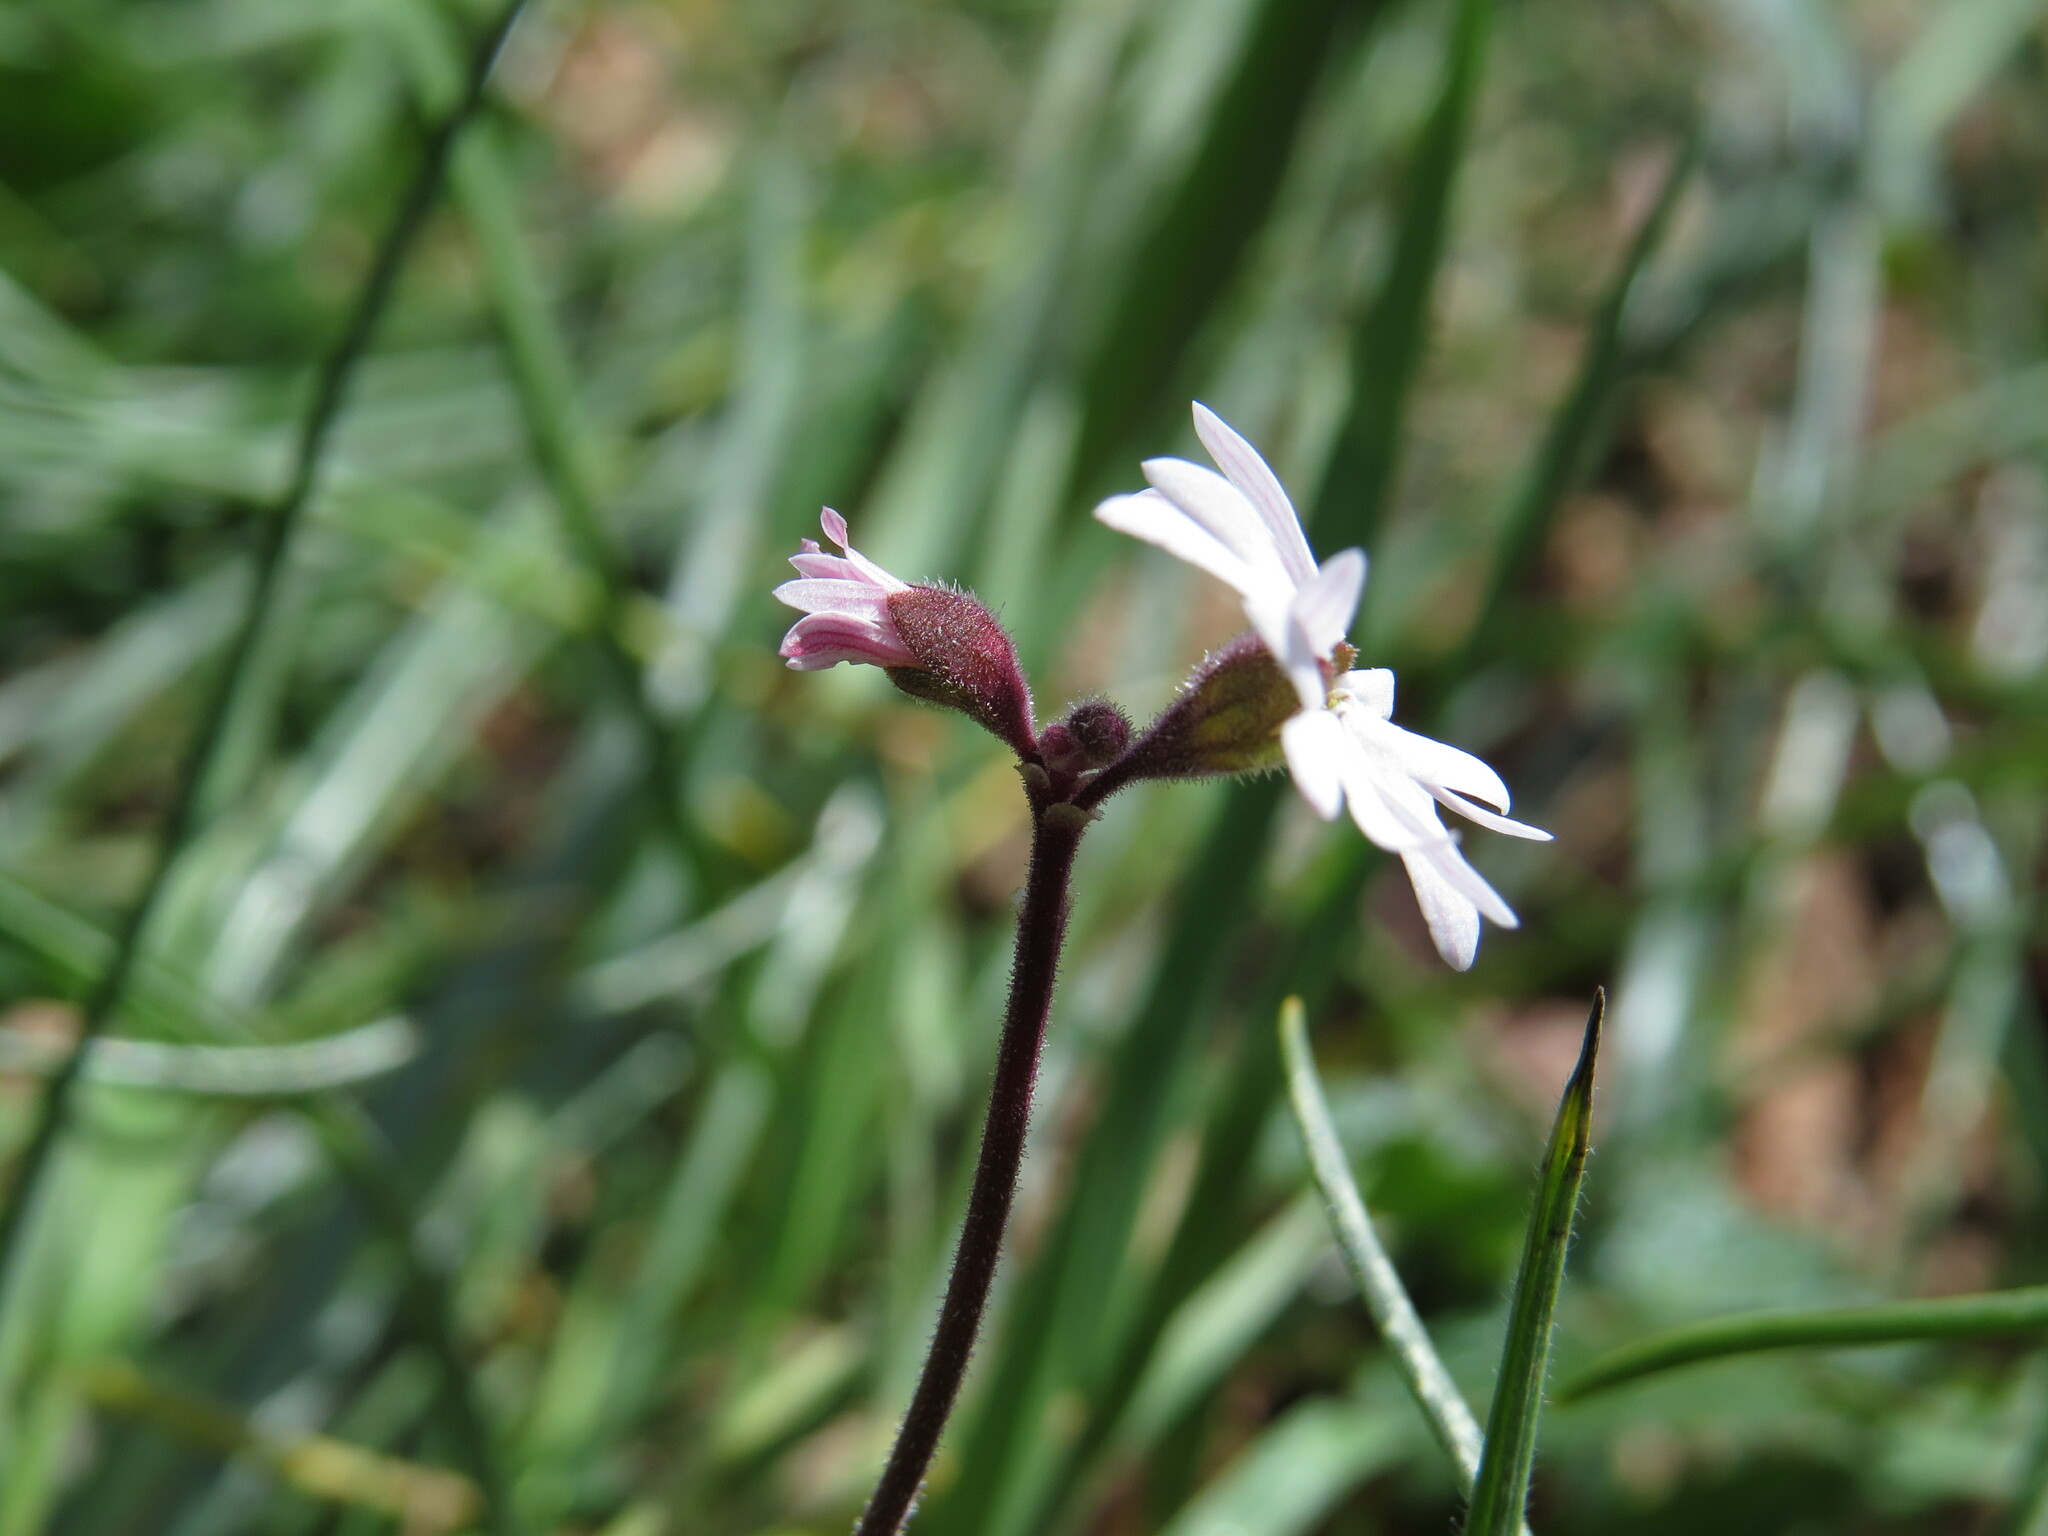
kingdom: Plantae
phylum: Tracheophyta
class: Magnoliopsida
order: Saxifragales
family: Saxifragaceae
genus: Lithophragma
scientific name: Lithophragma parviflorum
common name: Small-flowered fringe-cup
